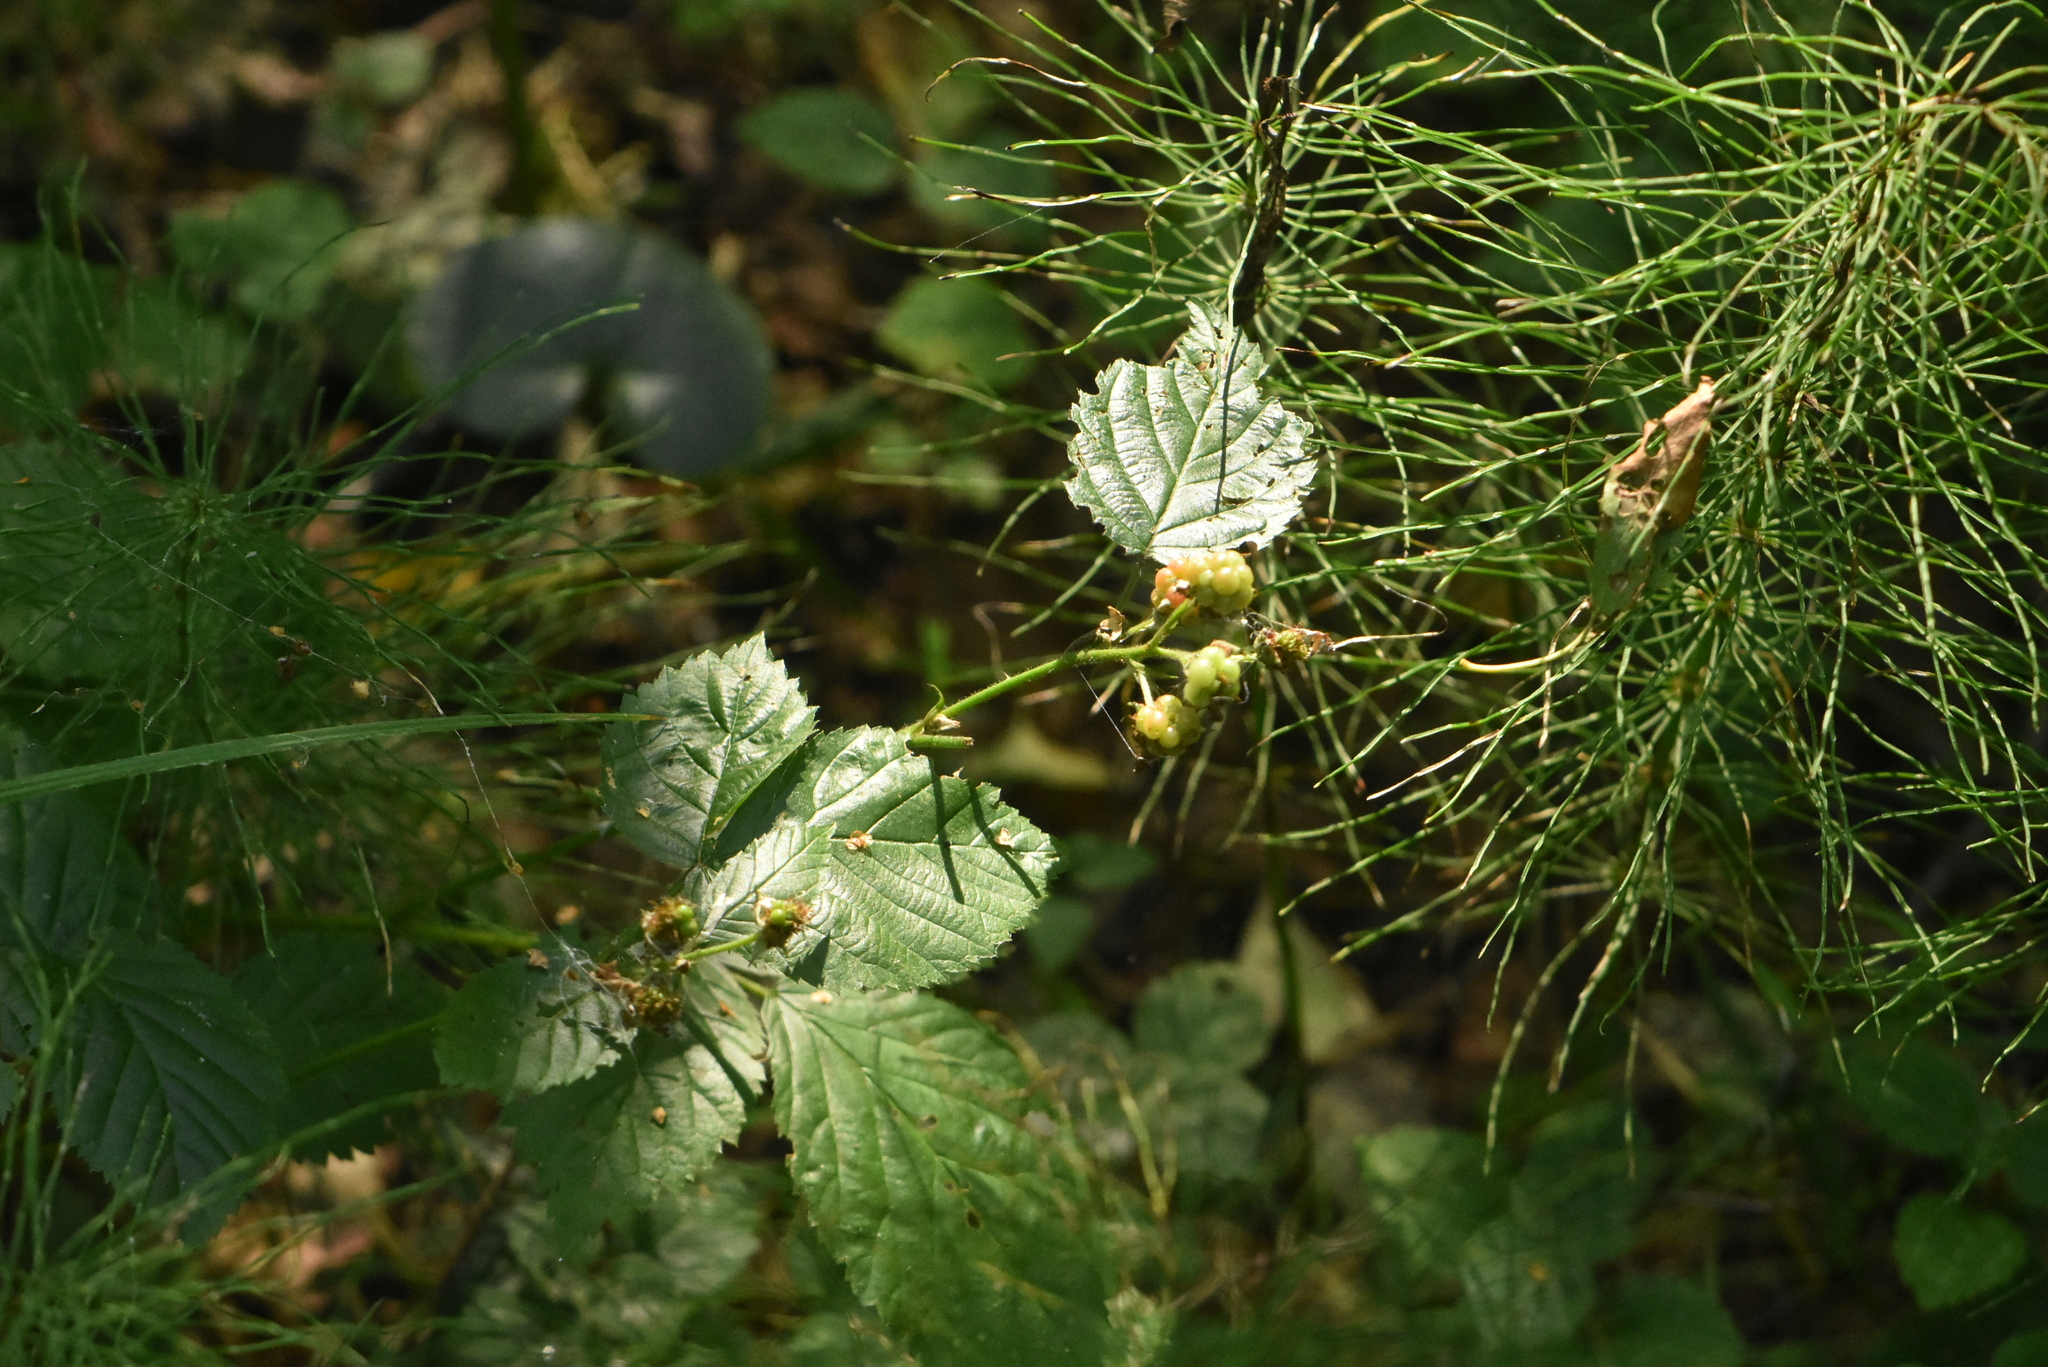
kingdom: Plantae
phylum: Tracheophyta
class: Magnoliopsida
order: Rosales
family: Rosaceae
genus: Rubus
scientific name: Rubus polonicus
